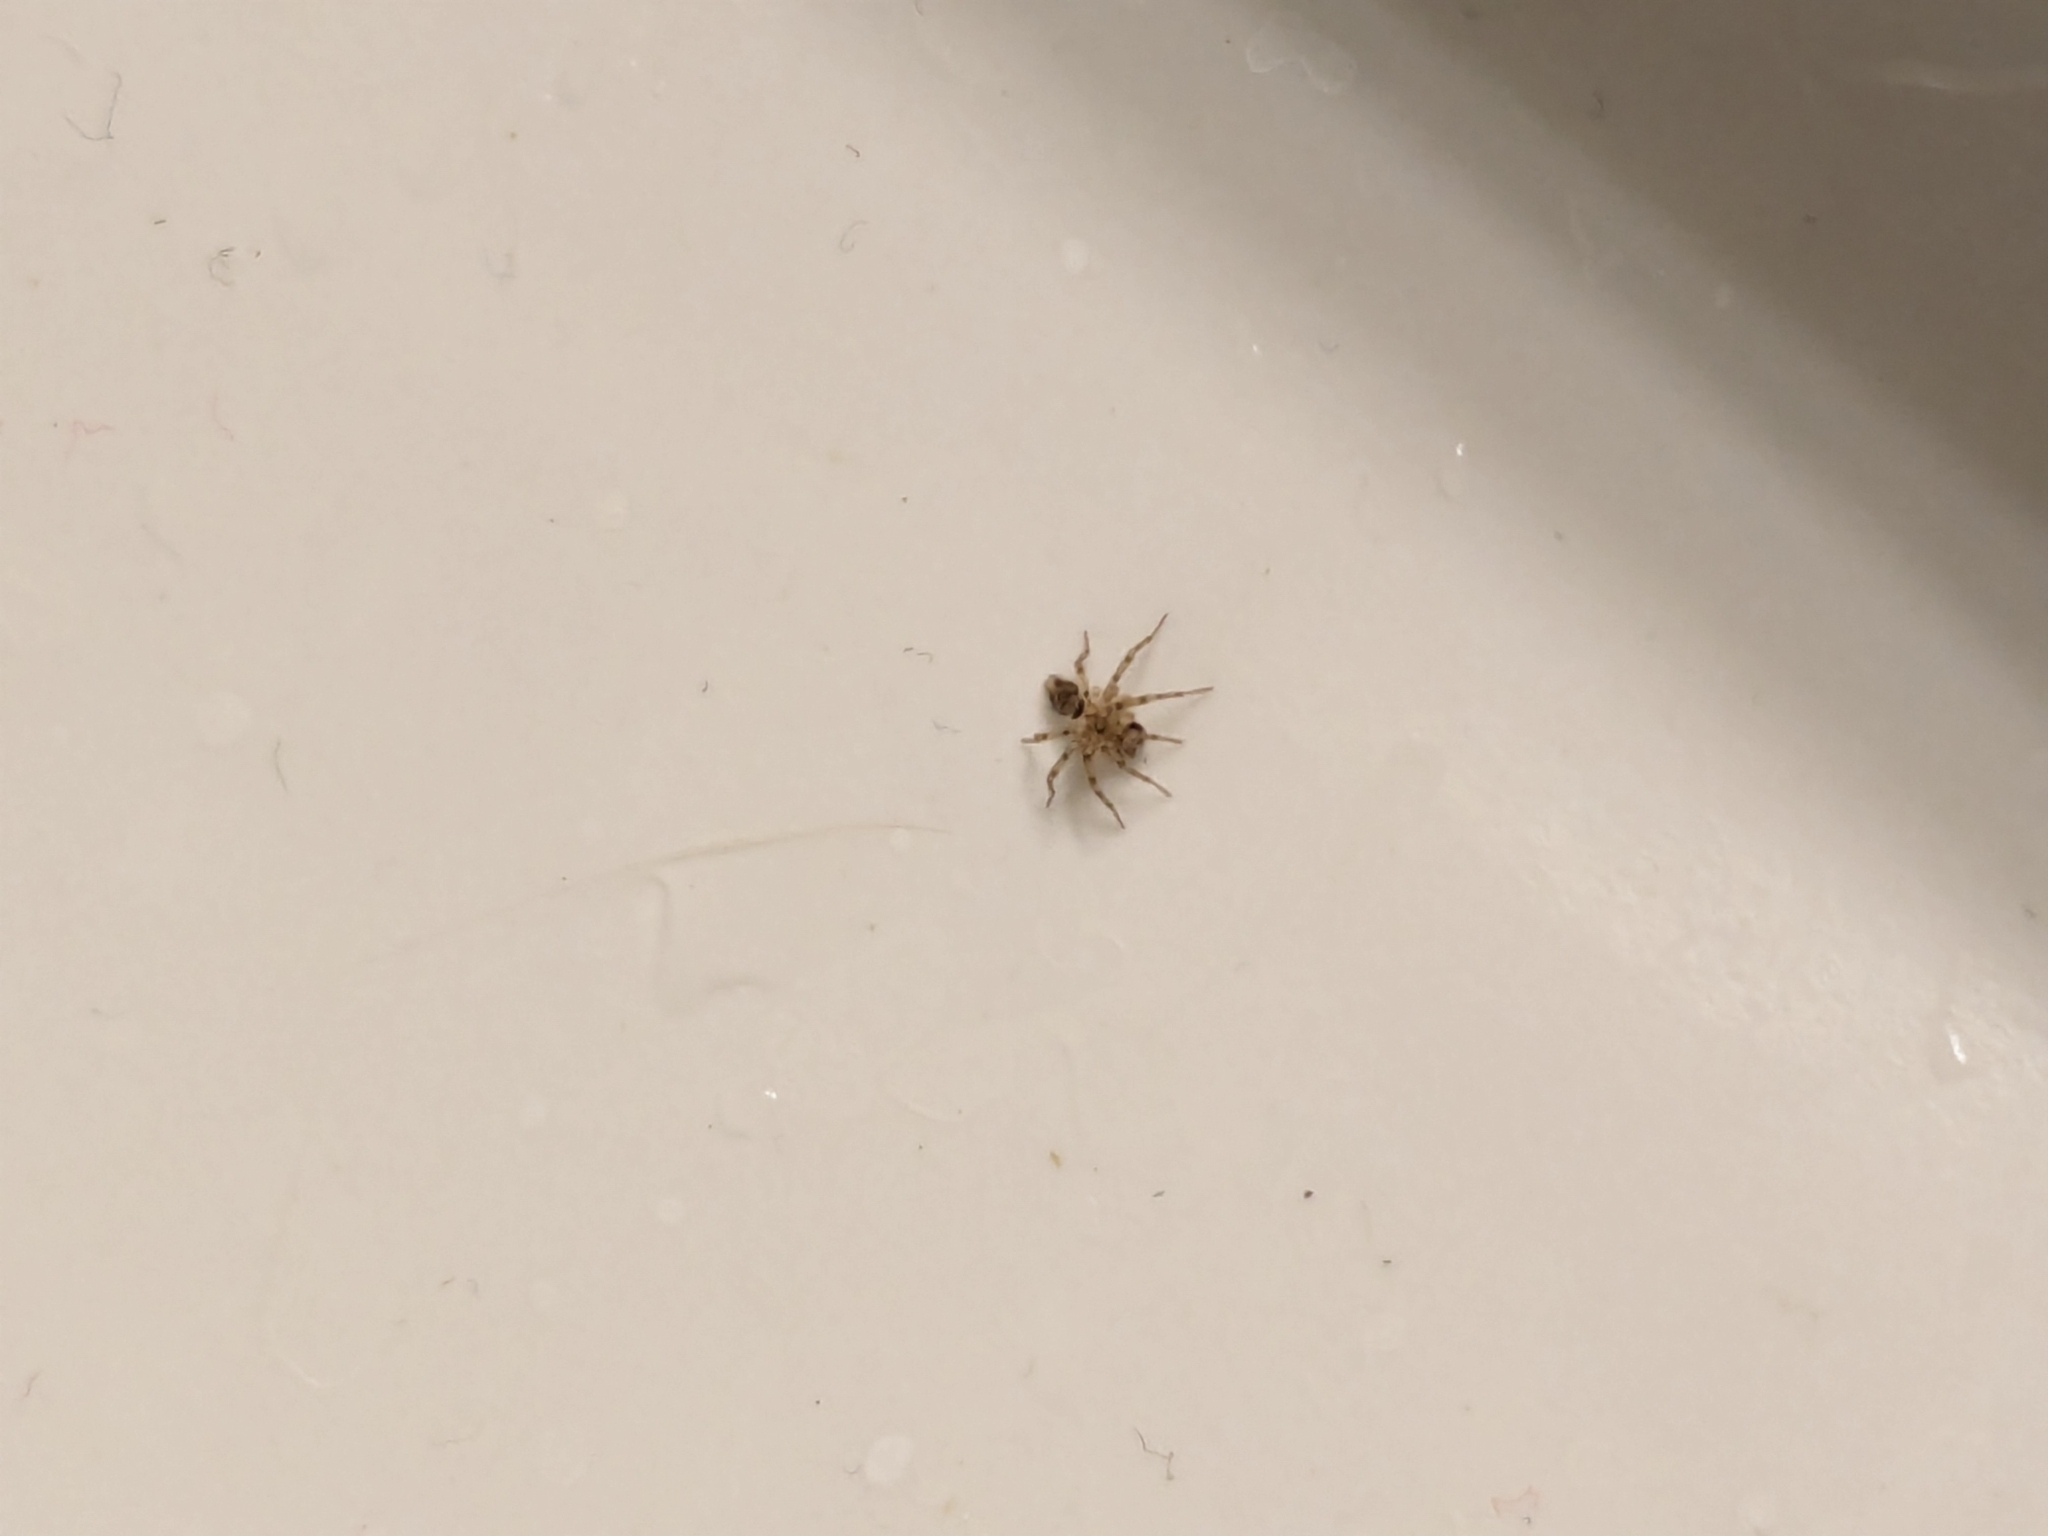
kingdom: Animalia
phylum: Arthropoda
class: Arachnida
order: Araneae
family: Oecobiidae
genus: Oecobius
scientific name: Oecobius
